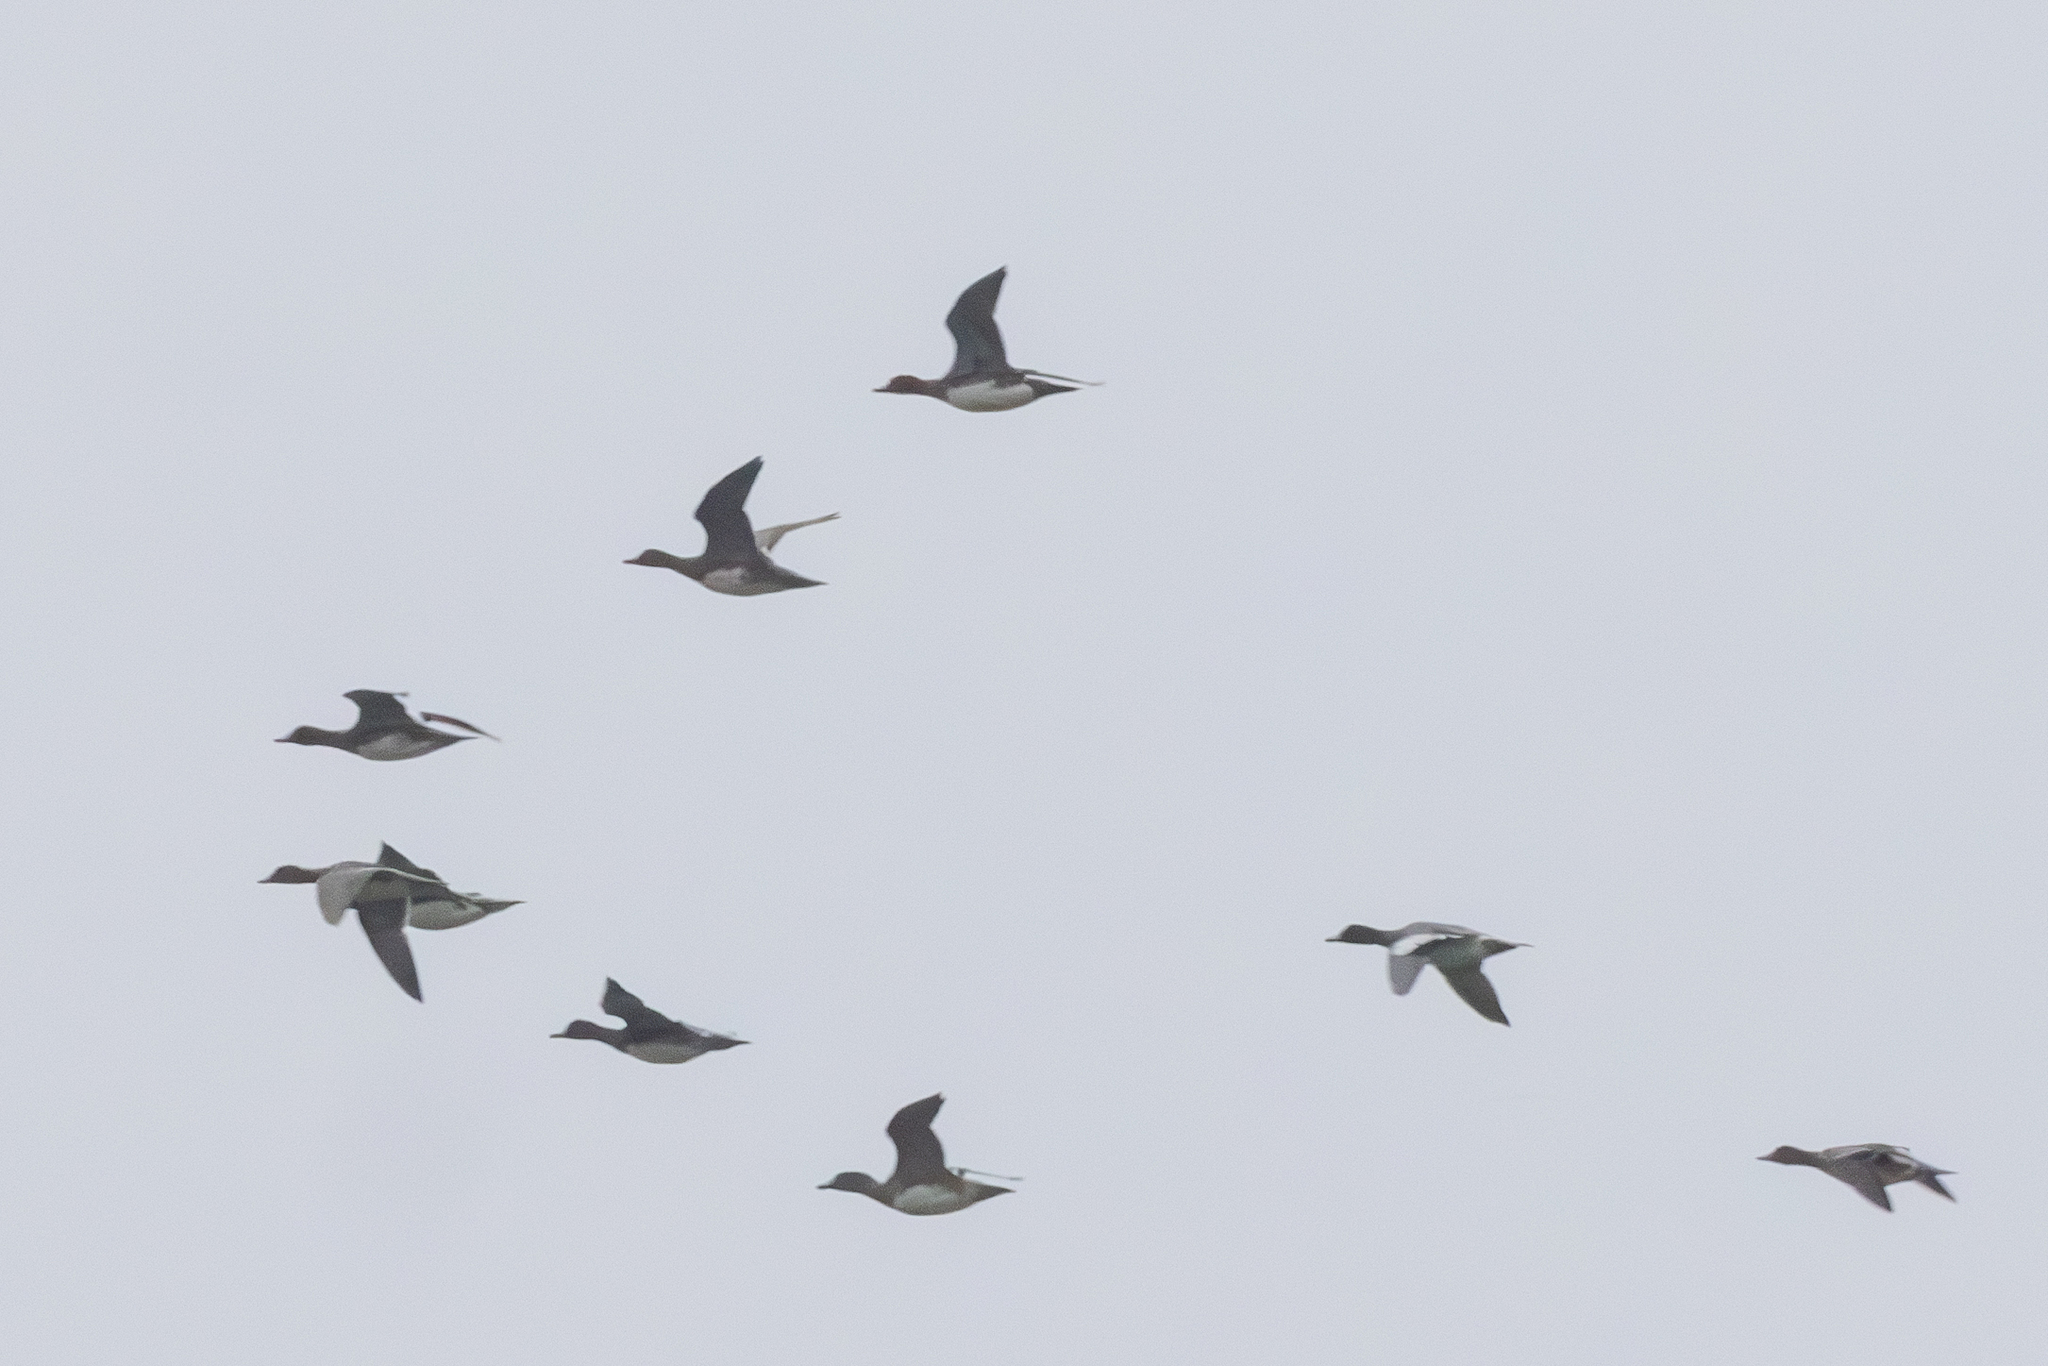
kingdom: Animalia
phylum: Chordata
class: Aves
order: Anseriformes
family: Anatidae
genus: Mareca
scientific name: Mareca penelope
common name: Eurasian wigeon
